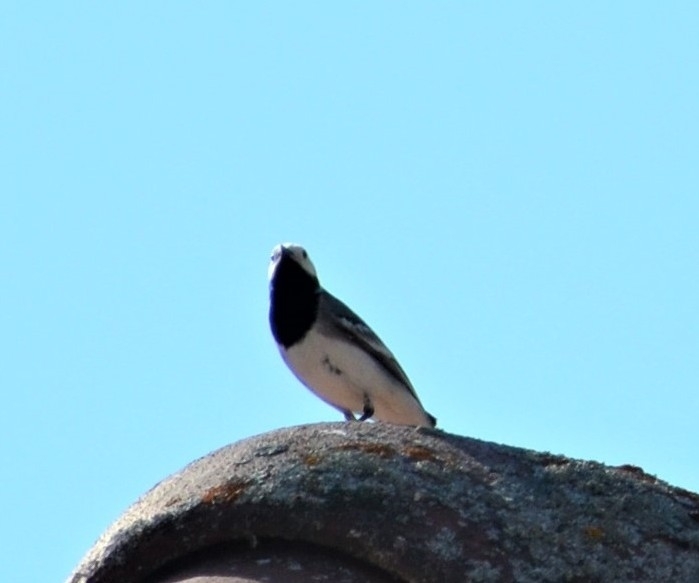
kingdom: Animalia
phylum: Chordata
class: Aves
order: Passeriformes
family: Motacillidae
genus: Motacilla
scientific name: Motacilla alba
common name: White wagtail
